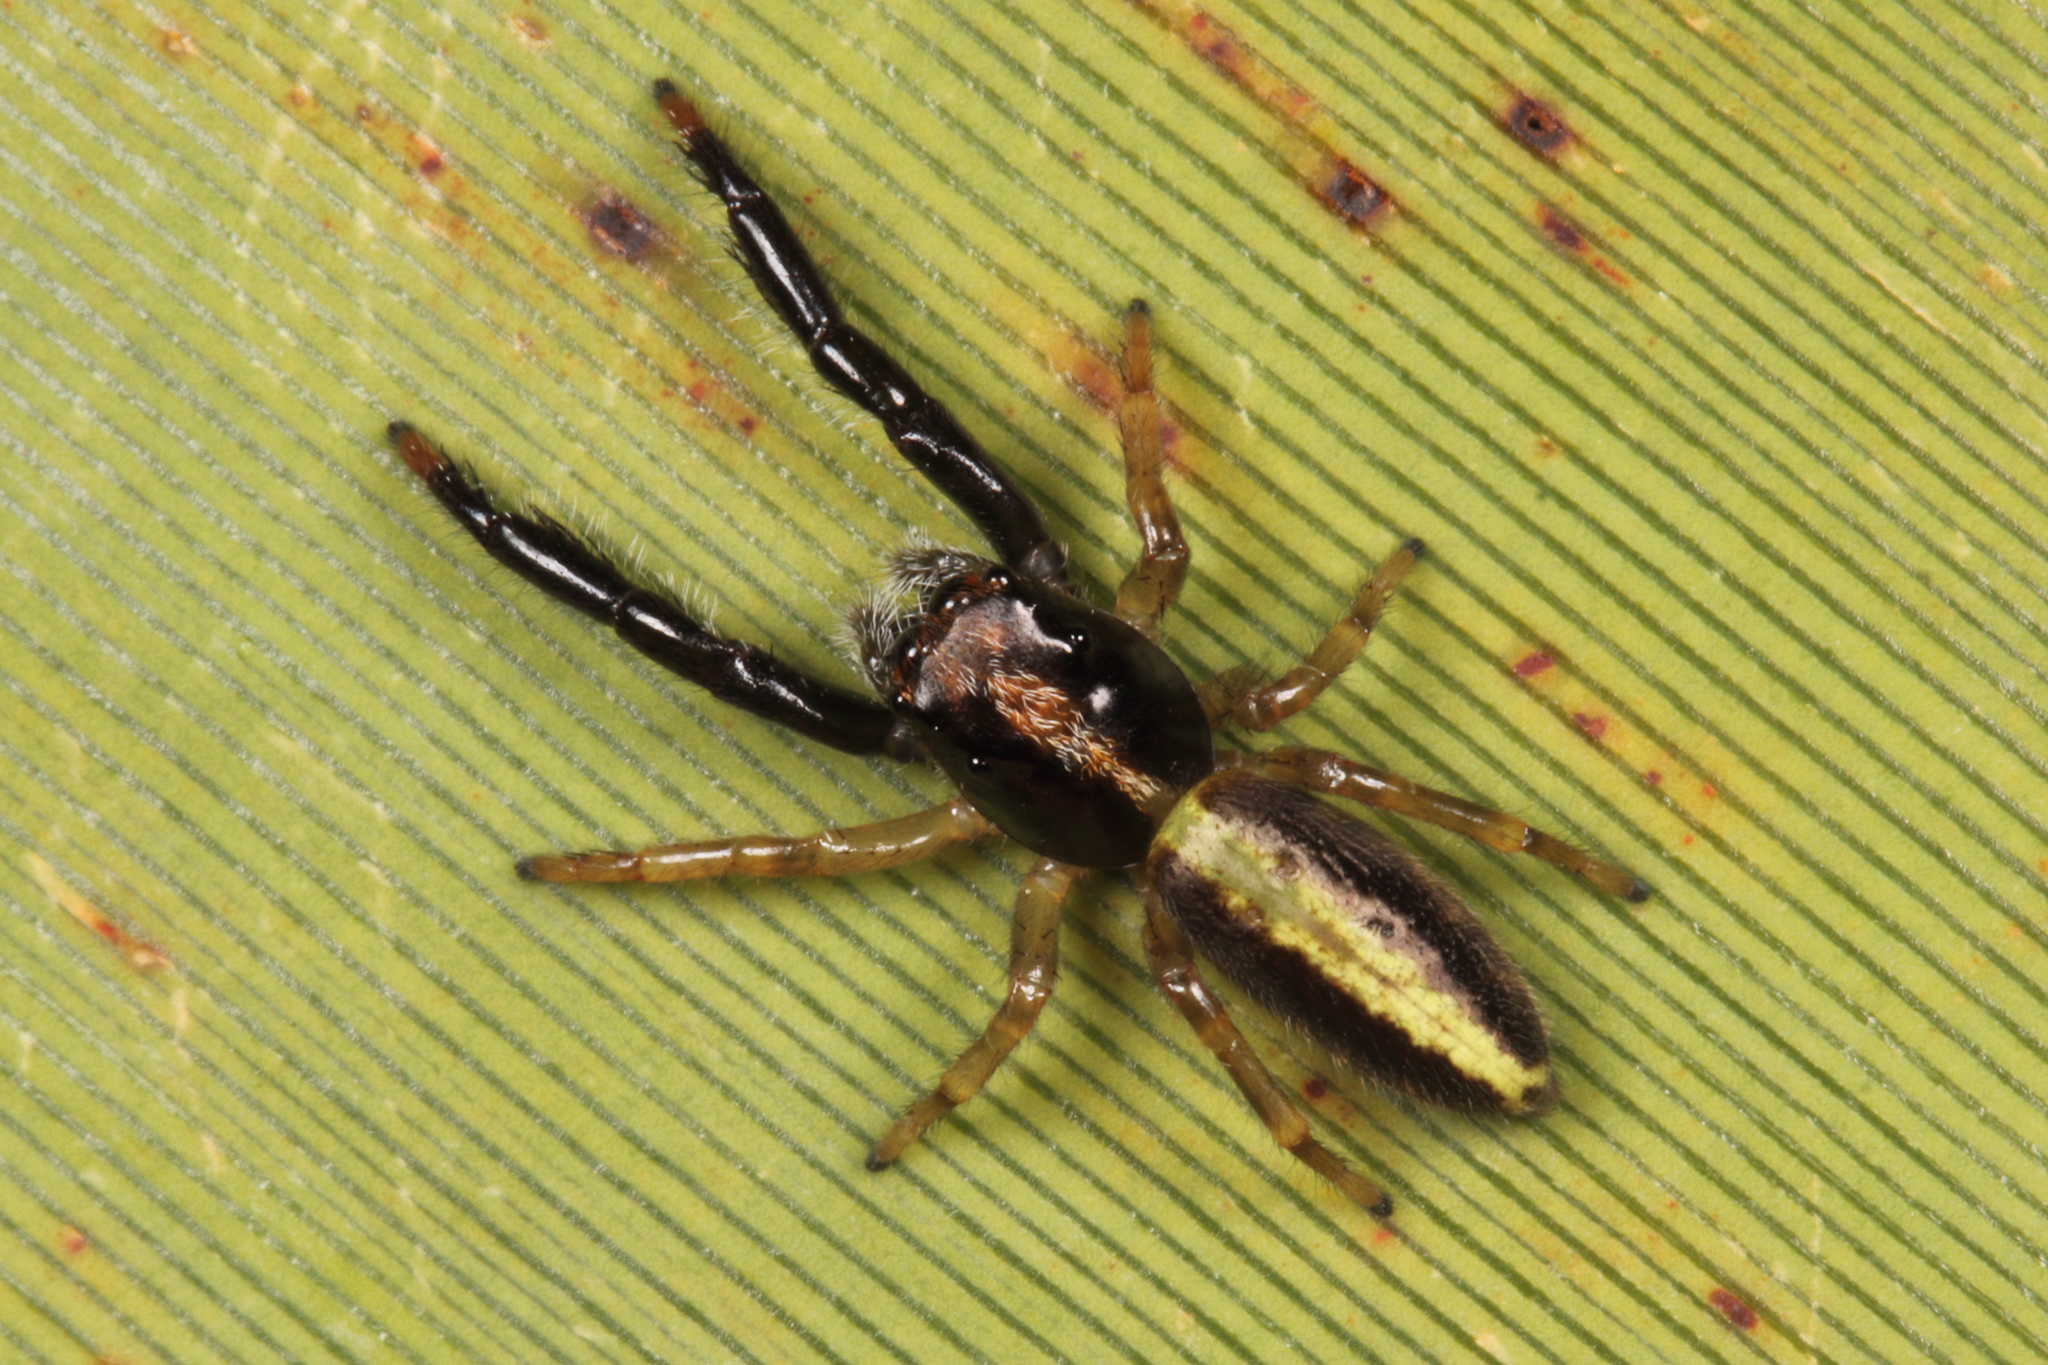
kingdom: Animalia
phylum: Arthropoda
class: Arachnida
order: Araneae
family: Salticidae
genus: Trite
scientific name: Trite planiceps
